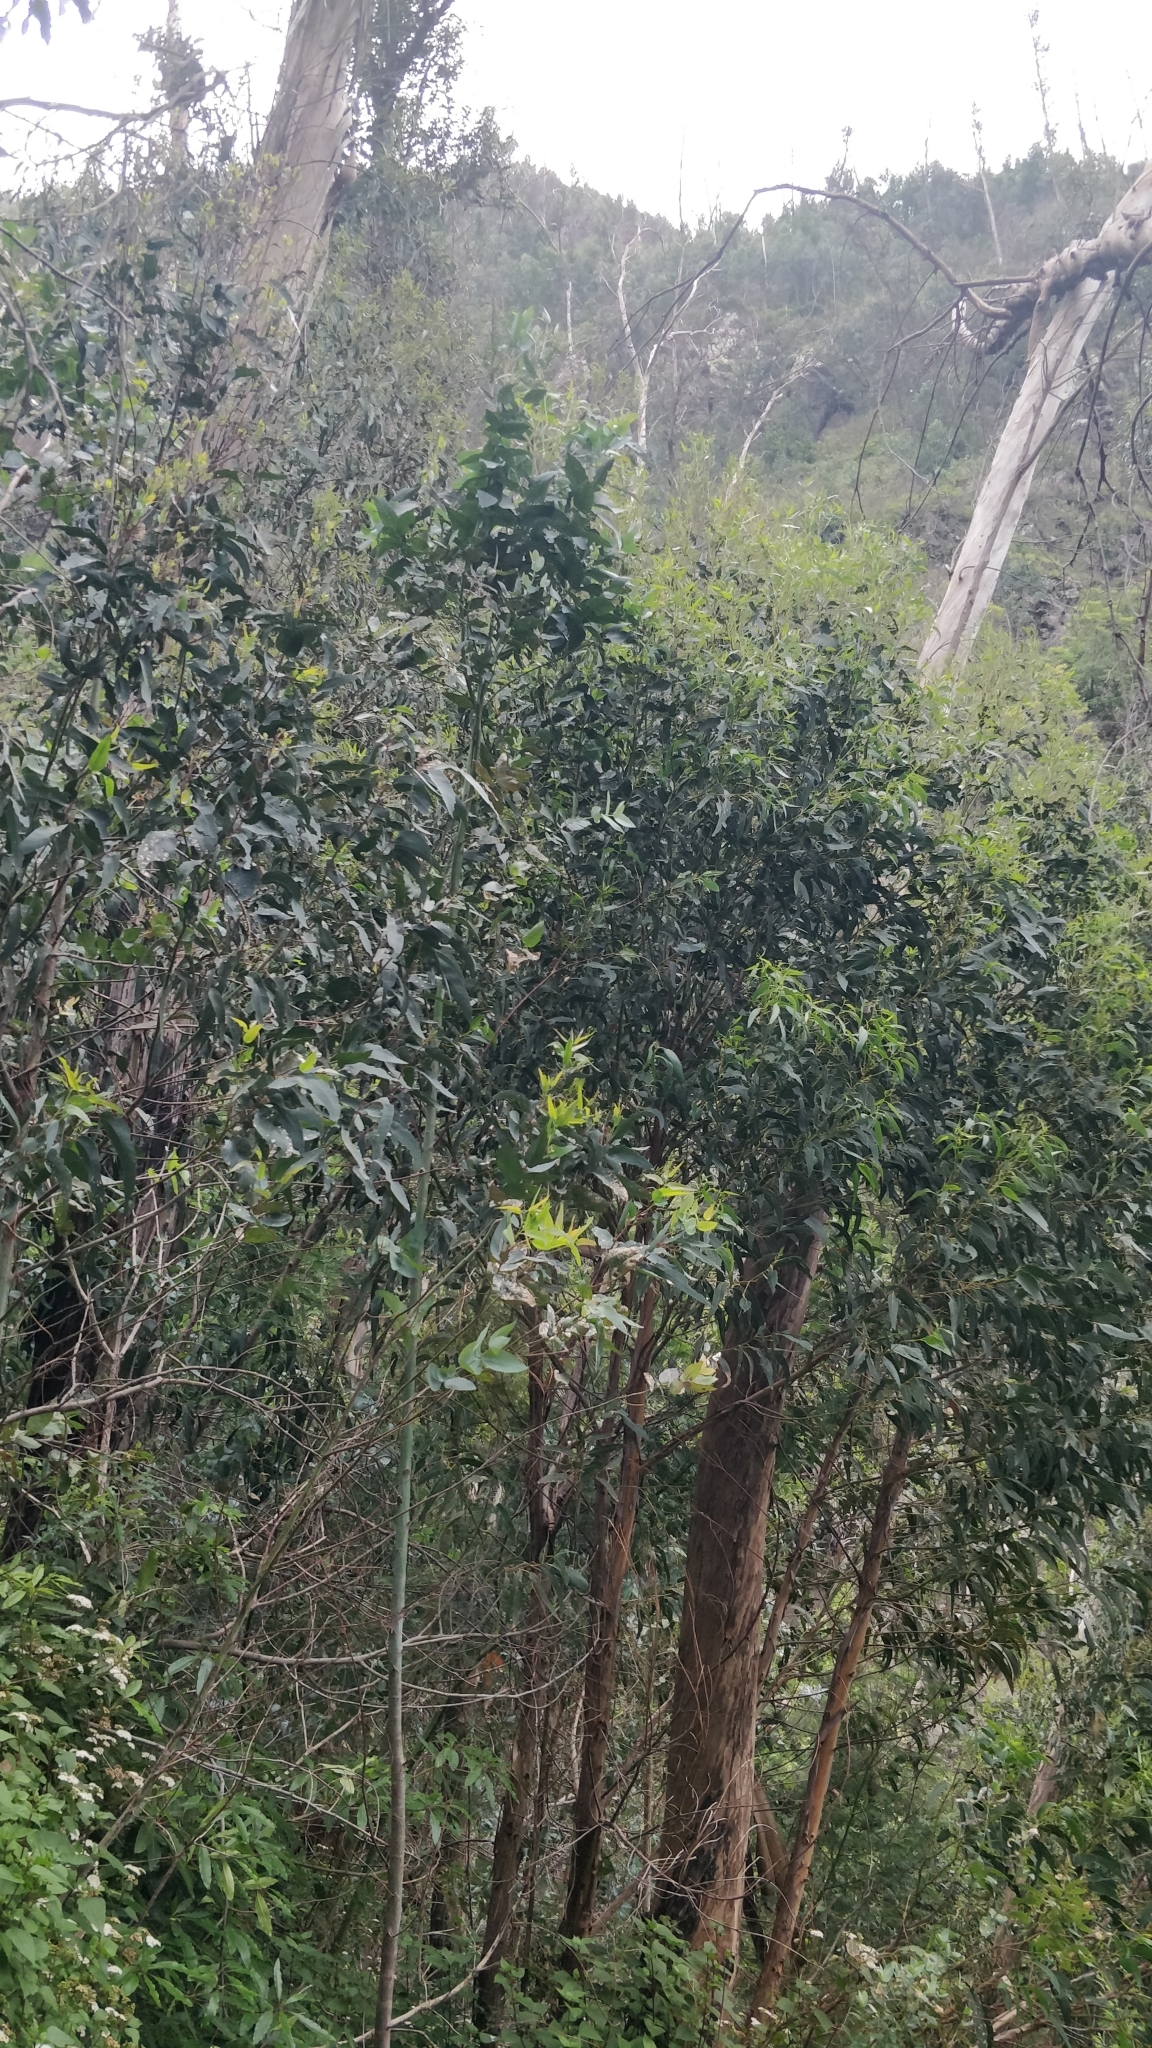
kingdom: Plantae
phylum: Tracheophyta
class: Magnoliopsida
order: Myrtales
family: Myrtaceae
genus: Eucalyptus
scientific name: Eucalyptus globulus
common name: Southern blue-gum
